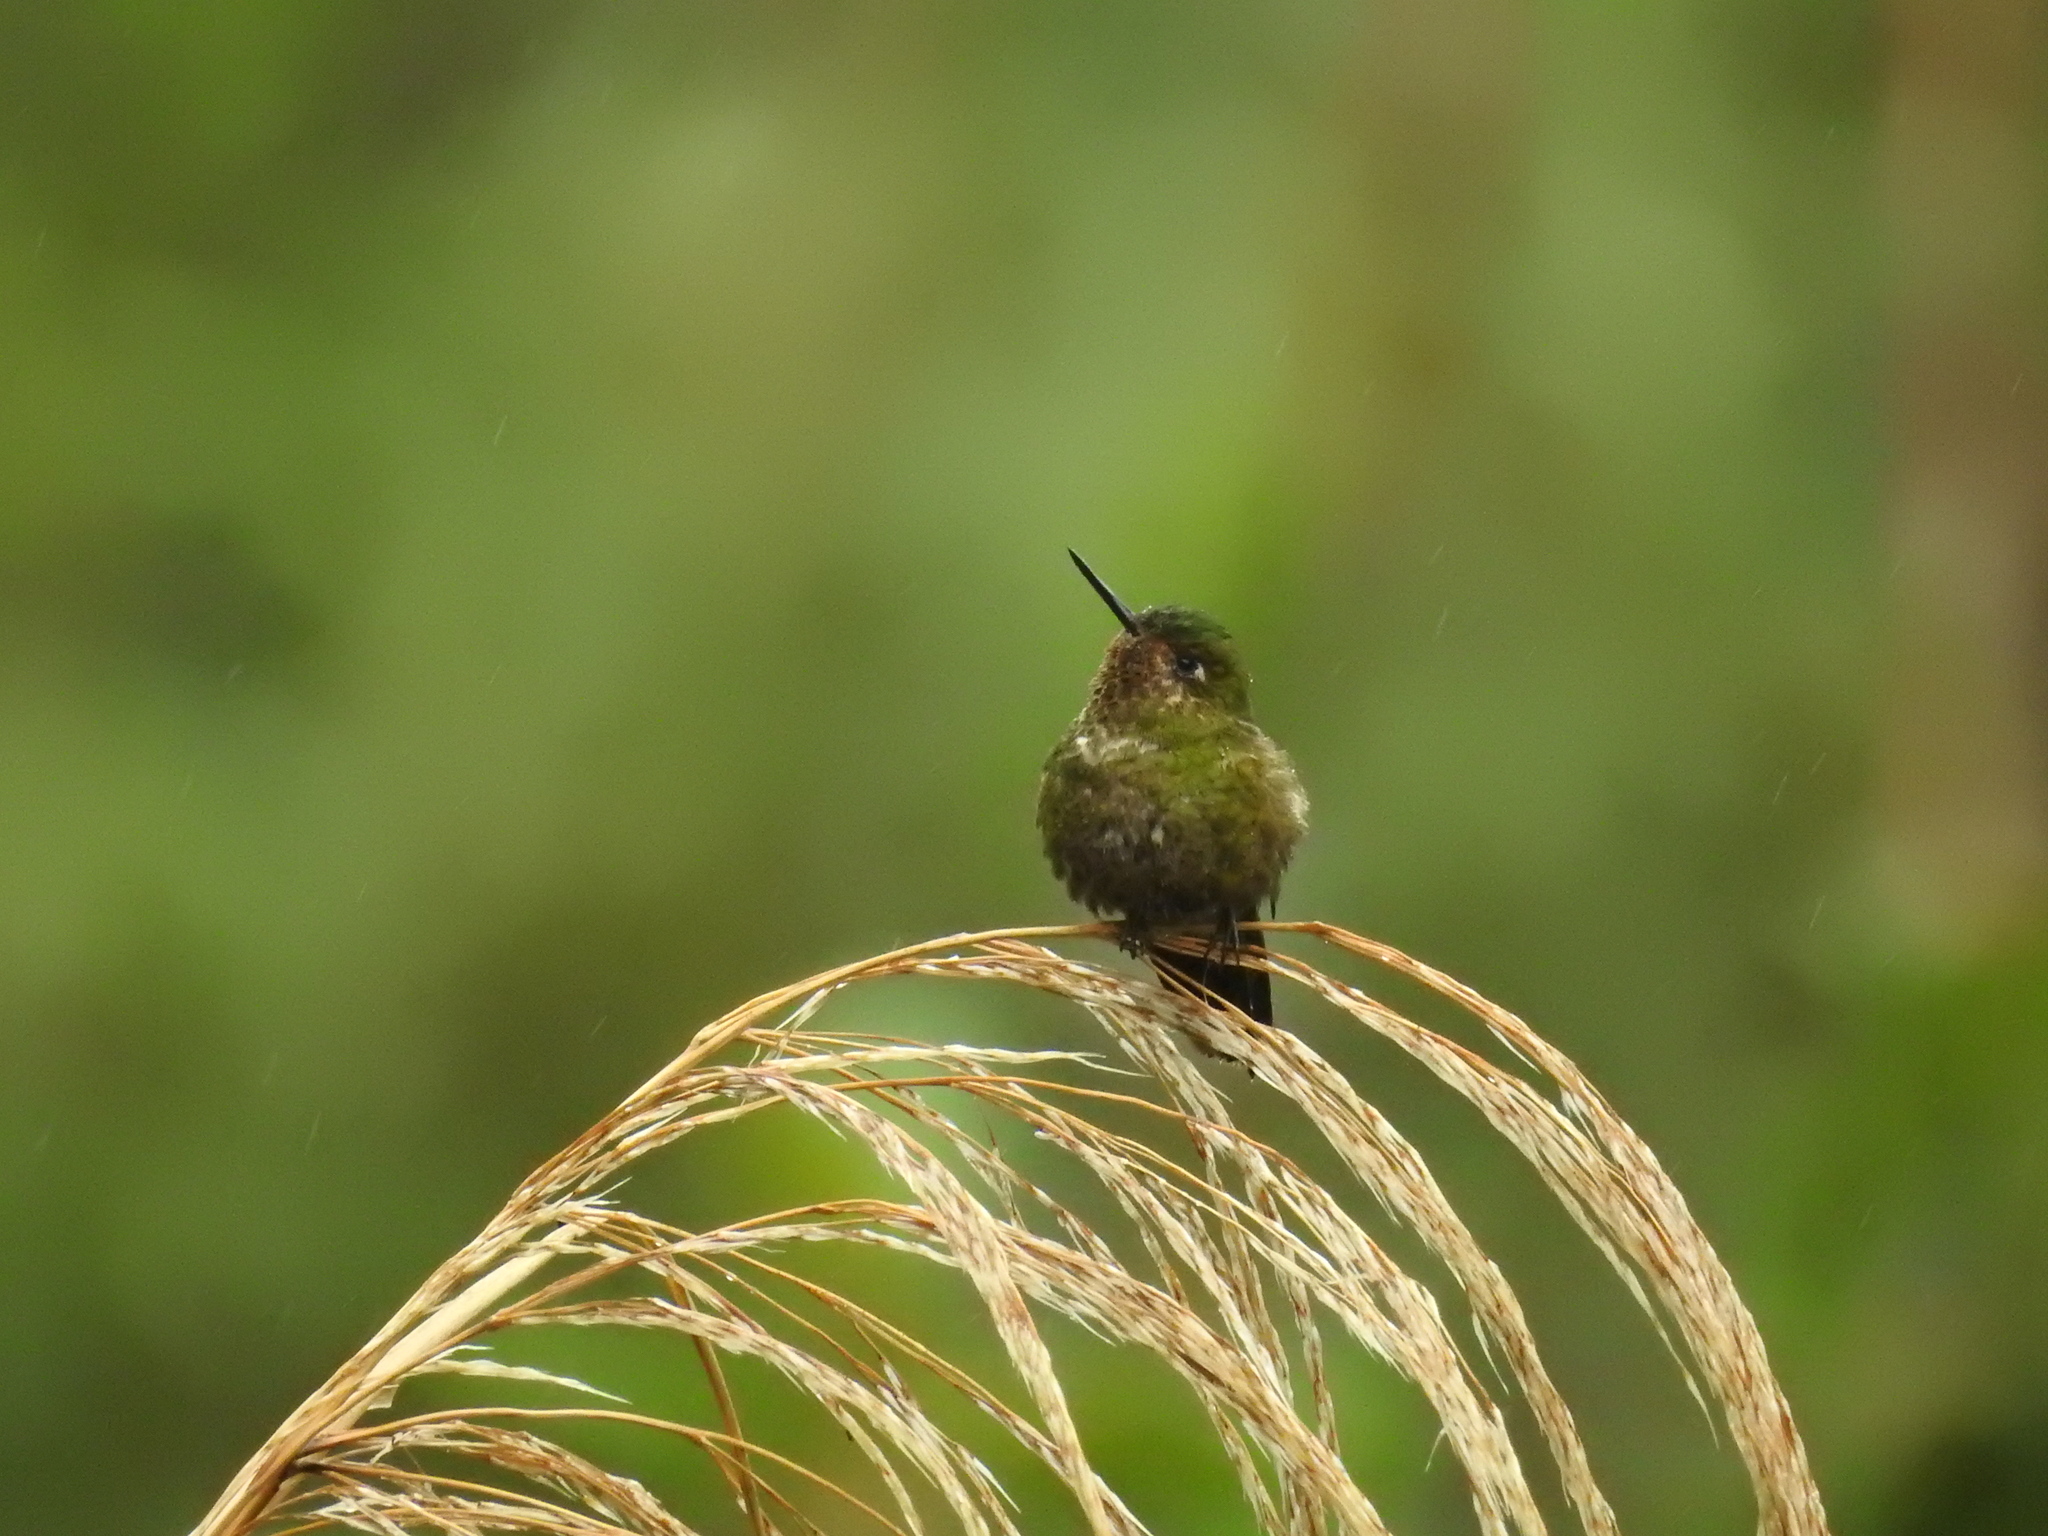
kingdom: Animalia
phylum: Chordata
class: Aves
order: Apodiformes
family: Trochilidae
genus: Metallura
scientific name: Metallura williami
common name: Viridian metaltail
